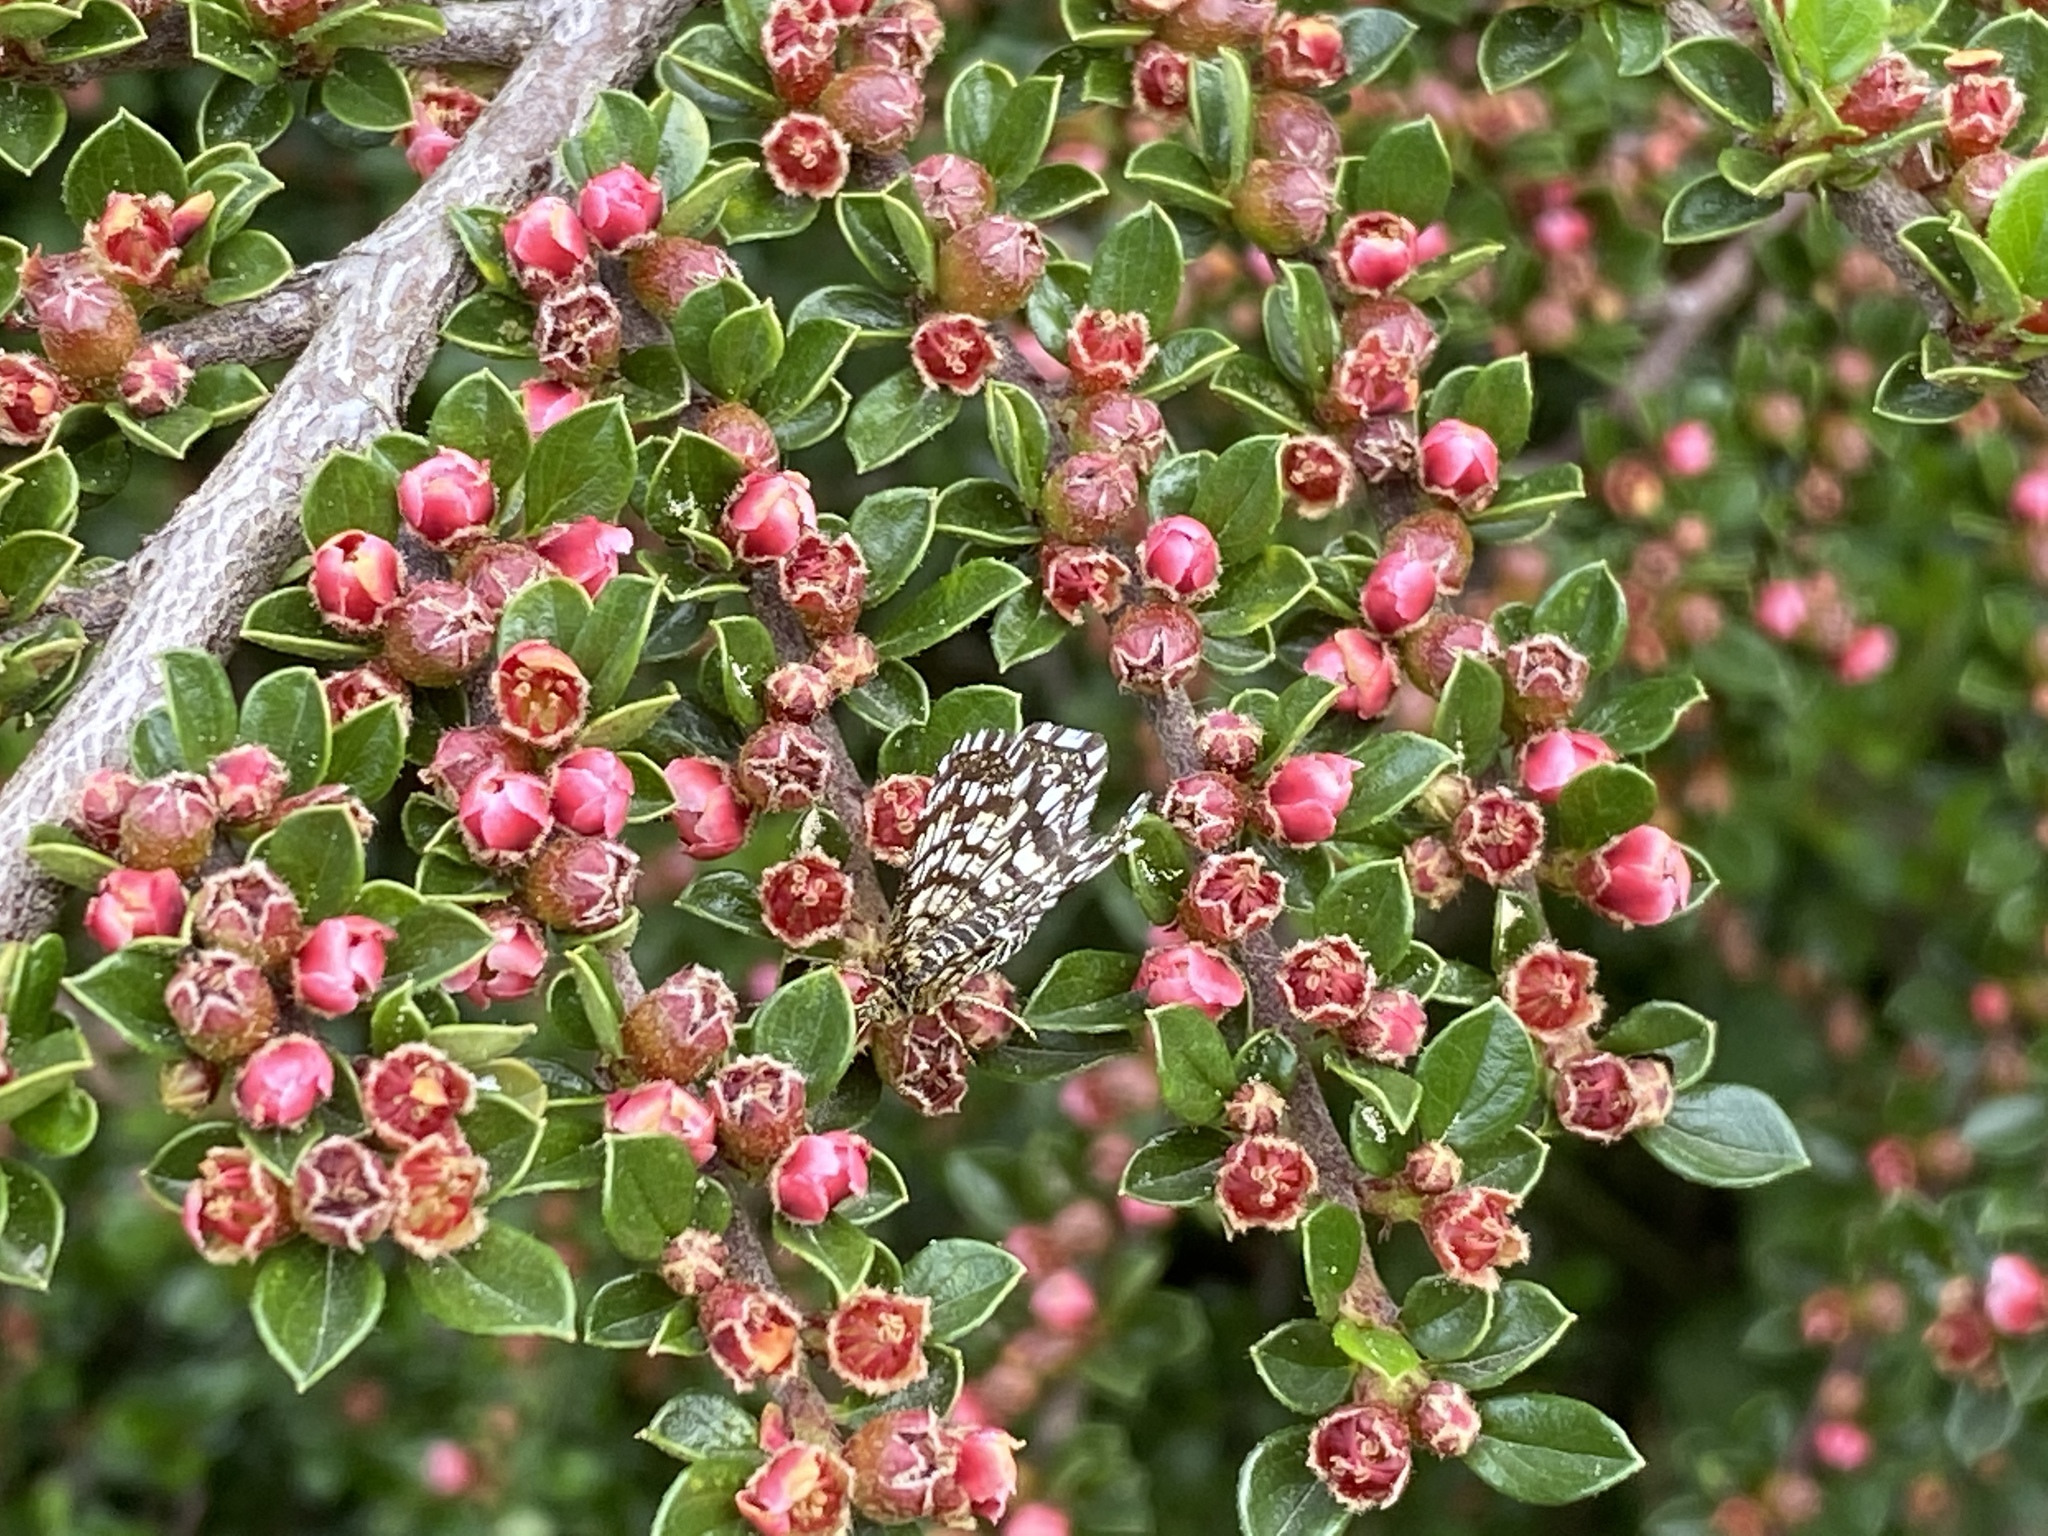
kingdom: Animalia
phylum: Arthropoda
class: Insecta
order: Lepidoptera
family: Geometridae
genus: Chiasmia
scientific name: Chiasmia clathrata
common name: Latticed heath
